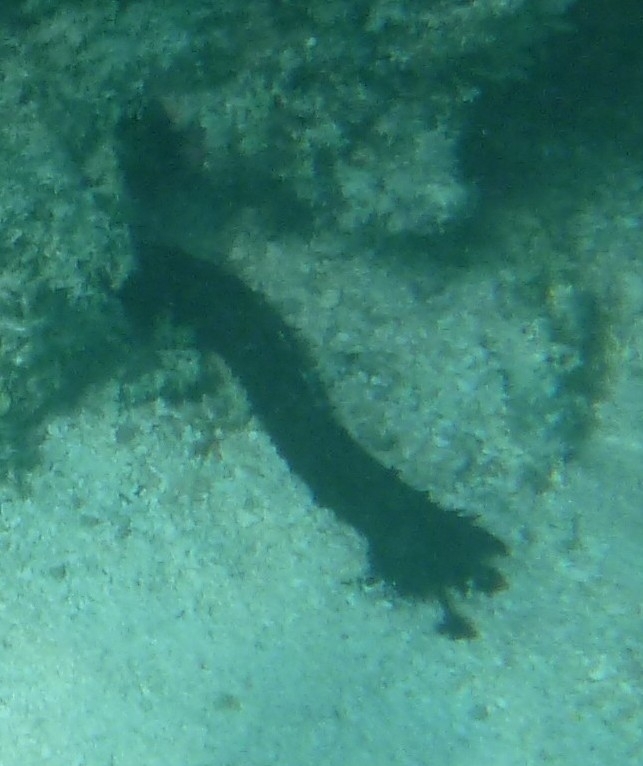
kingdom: Animalia
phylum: Echinodermata
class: Holothuroidea
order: Holothuriida
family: Holothuriidae
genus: Holothuria
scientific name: Holothuria leucospilota
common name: White thread fish
